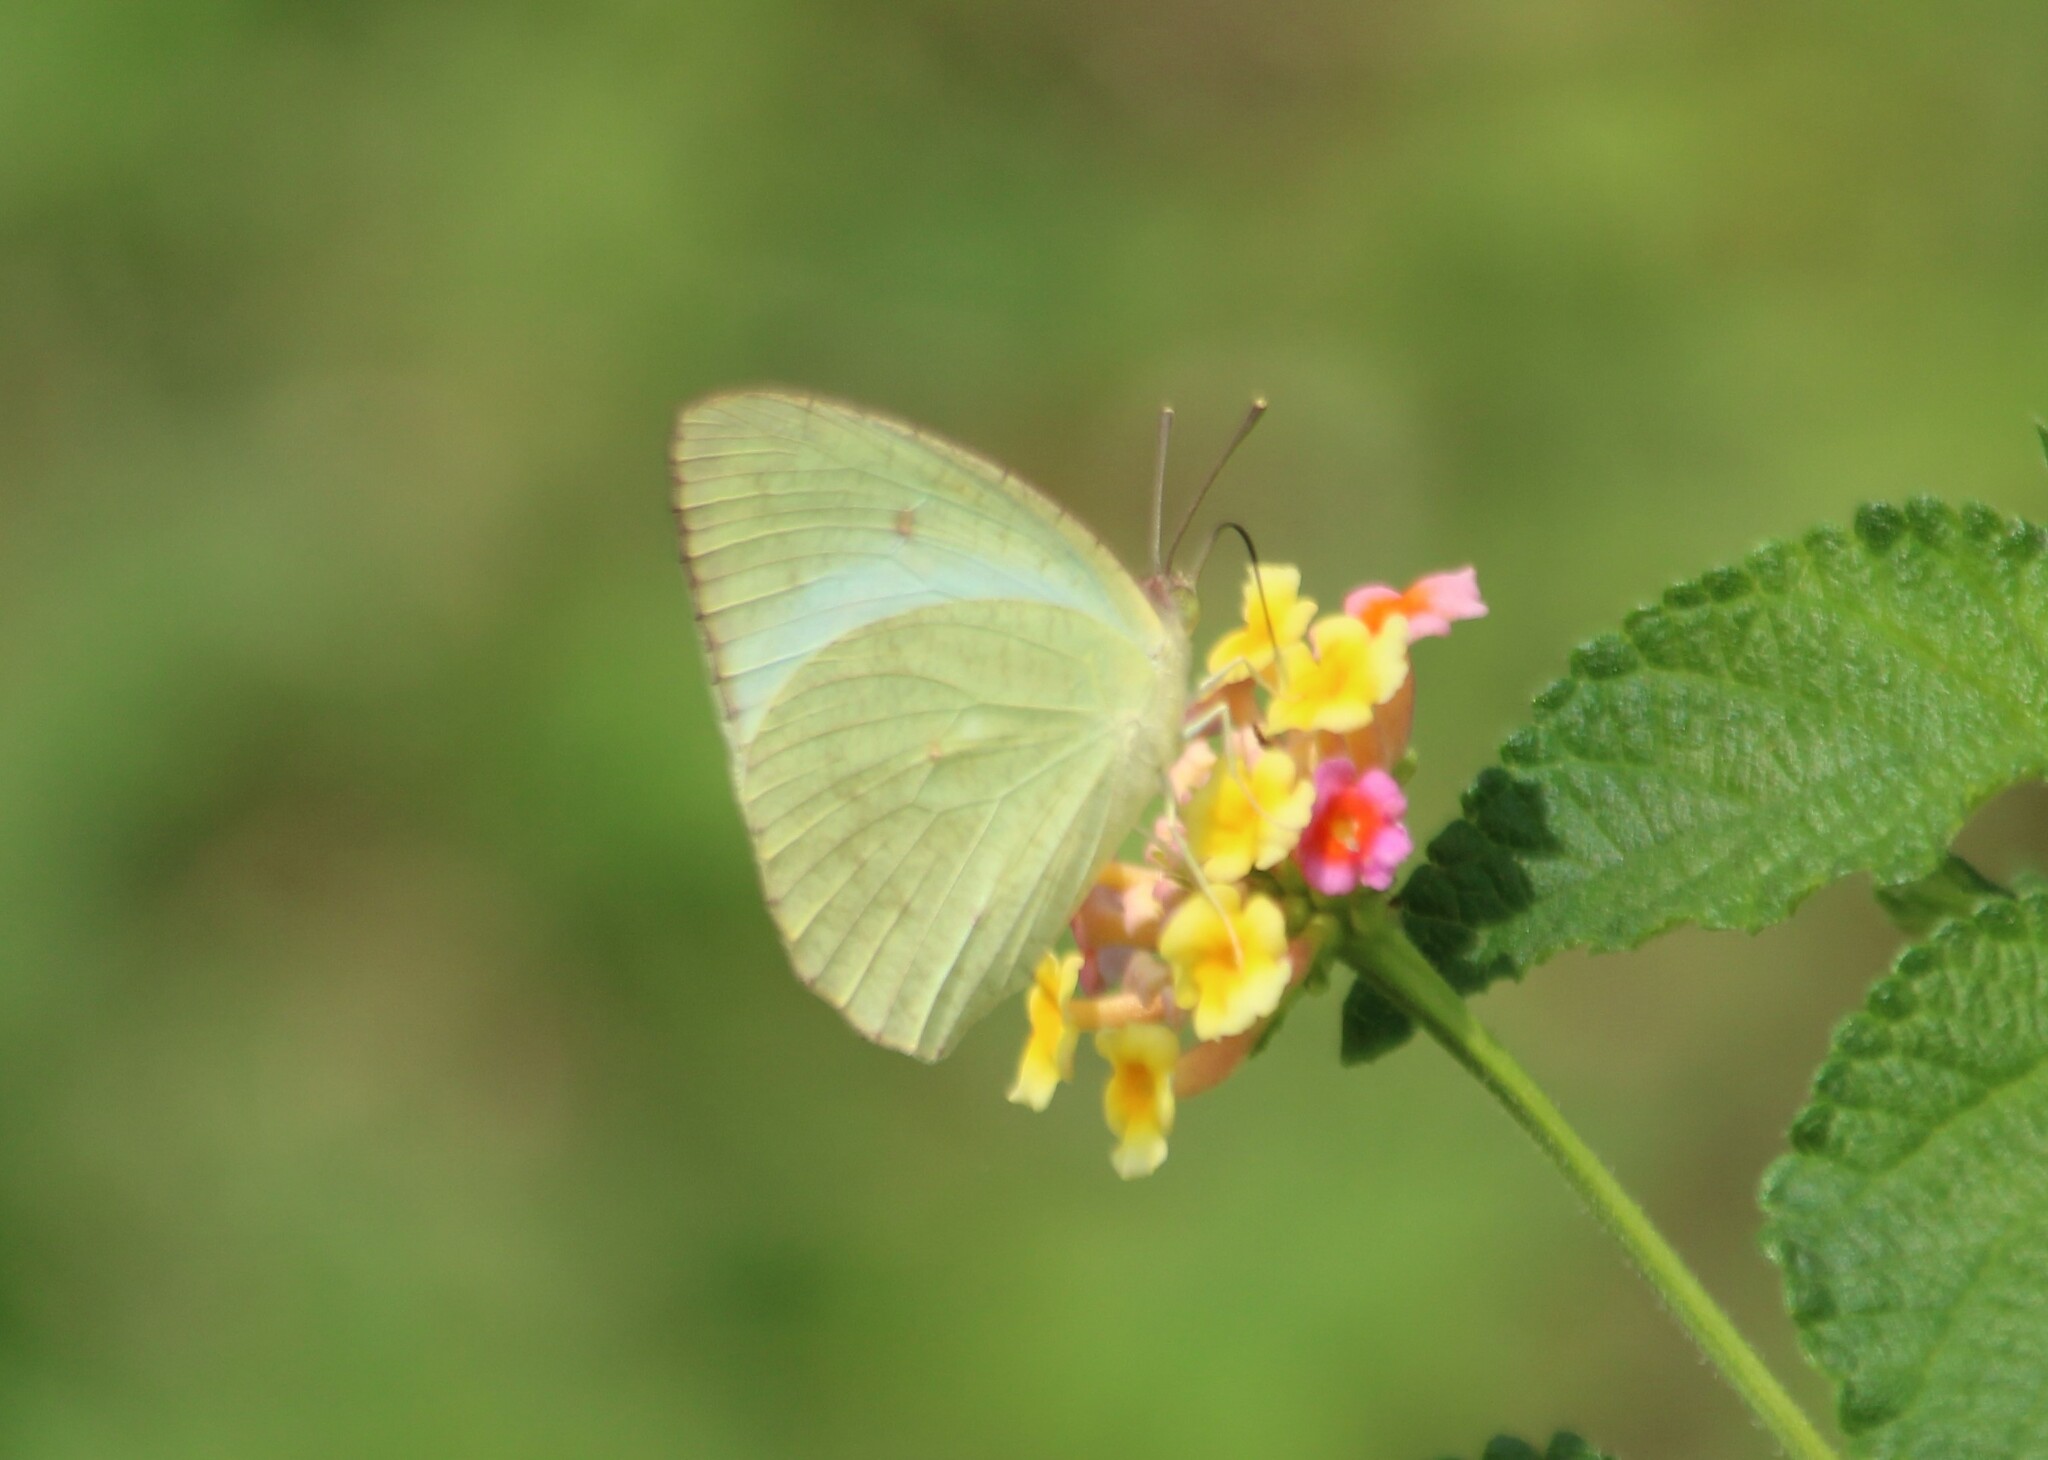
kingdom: Animalia
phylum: Arthropoda
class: Insecta
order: Lepidoptera
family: Pieridae
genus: Catopsilia
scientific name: Catopsilia pyranthe
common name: Mottled emigrant
